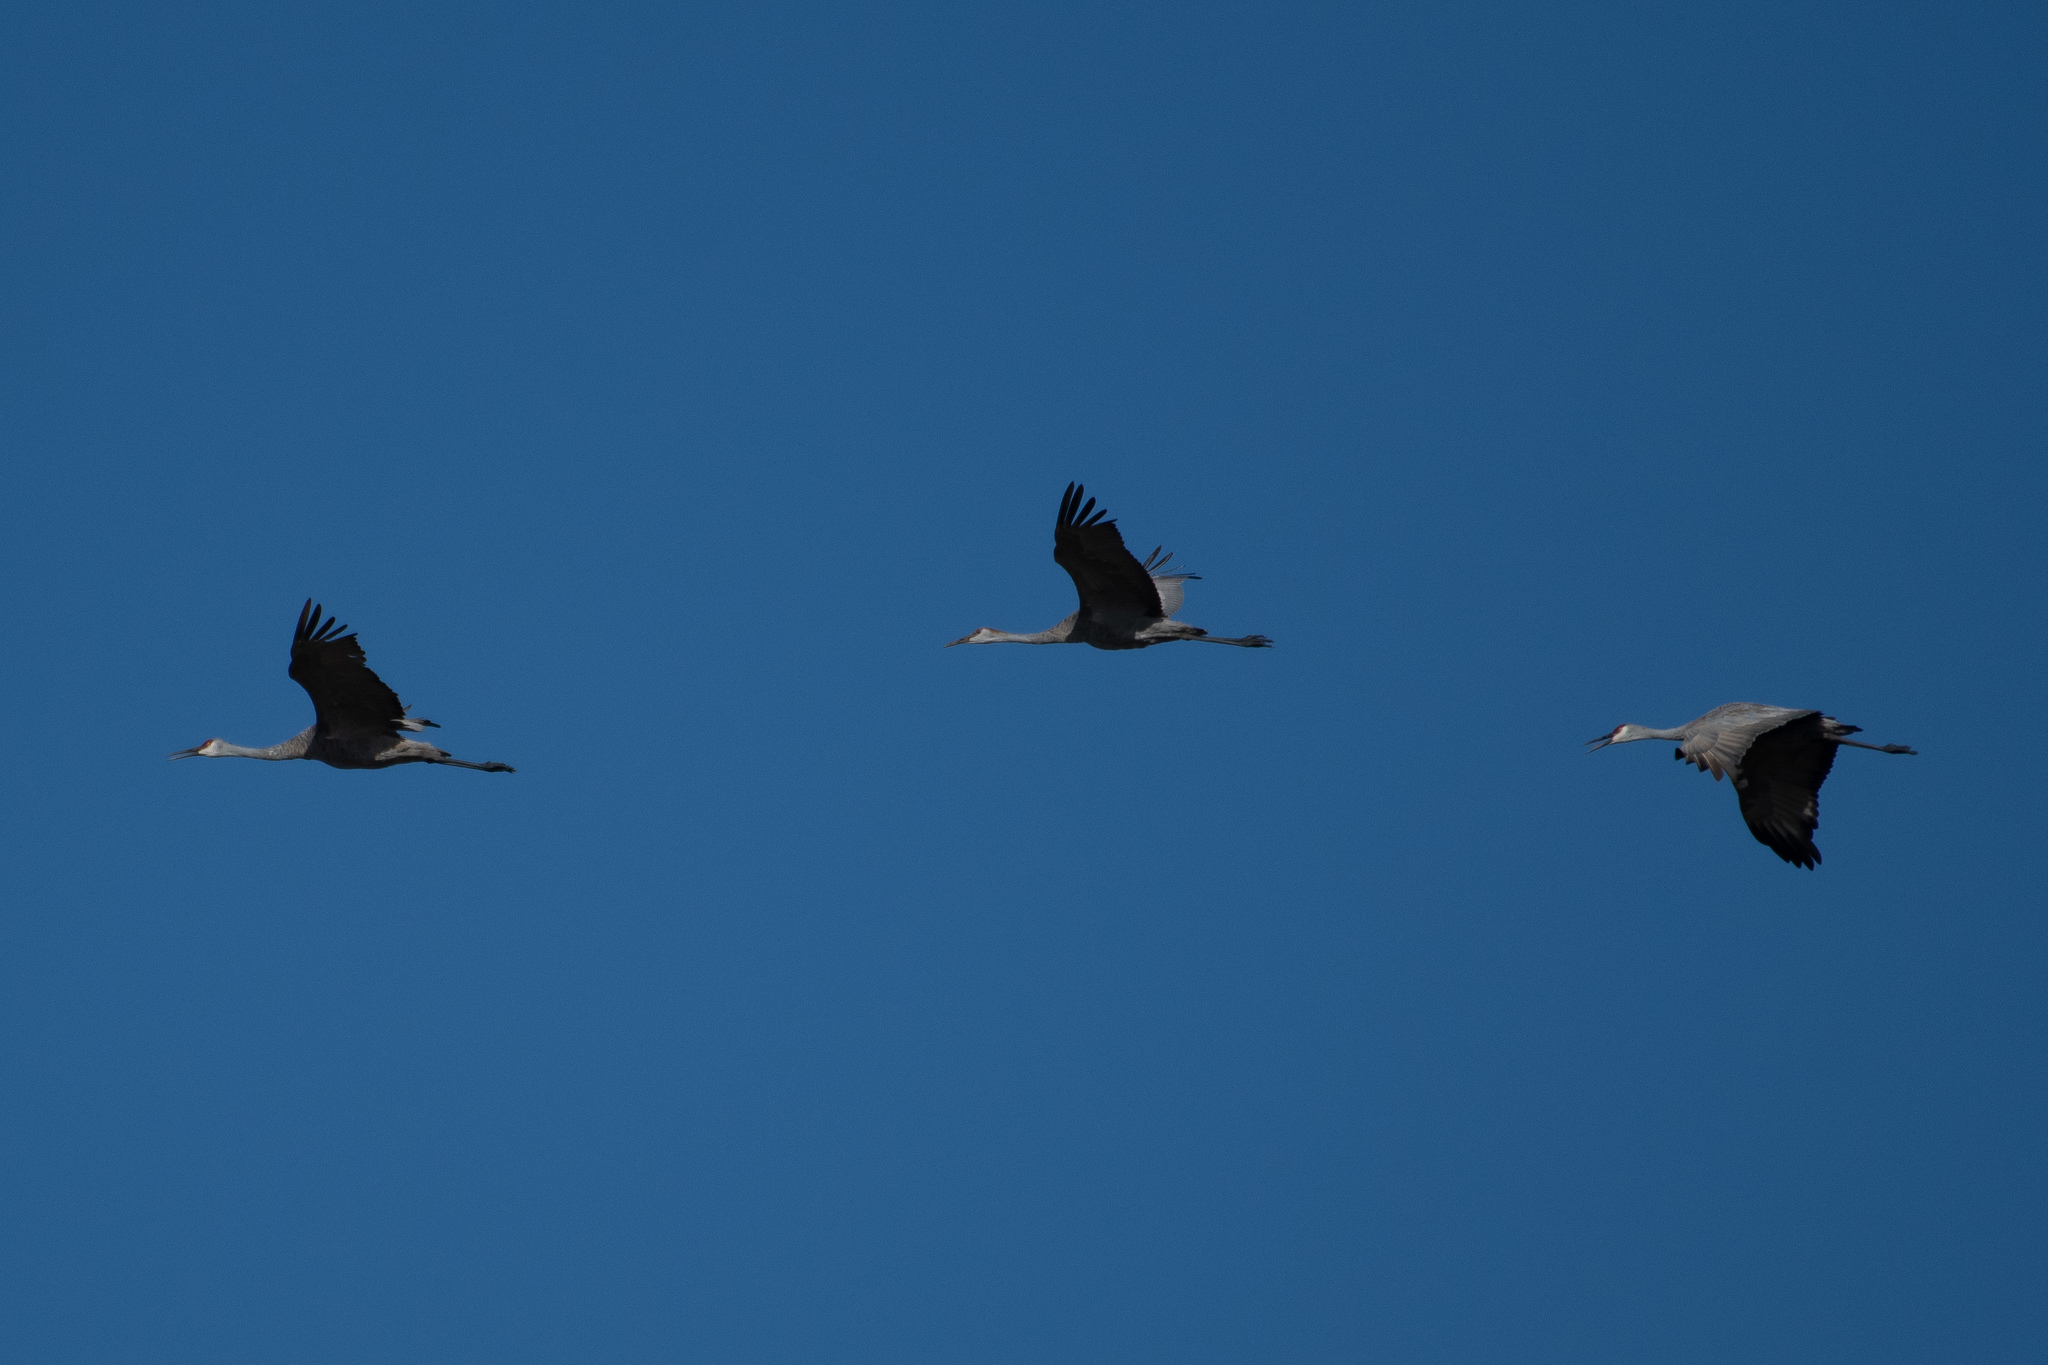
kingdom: Animalia
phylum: Chordata
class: Aves
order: Gruiformes
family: Gruidae
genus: Grus
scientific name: Grus canadensis
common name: Sandhill crane
